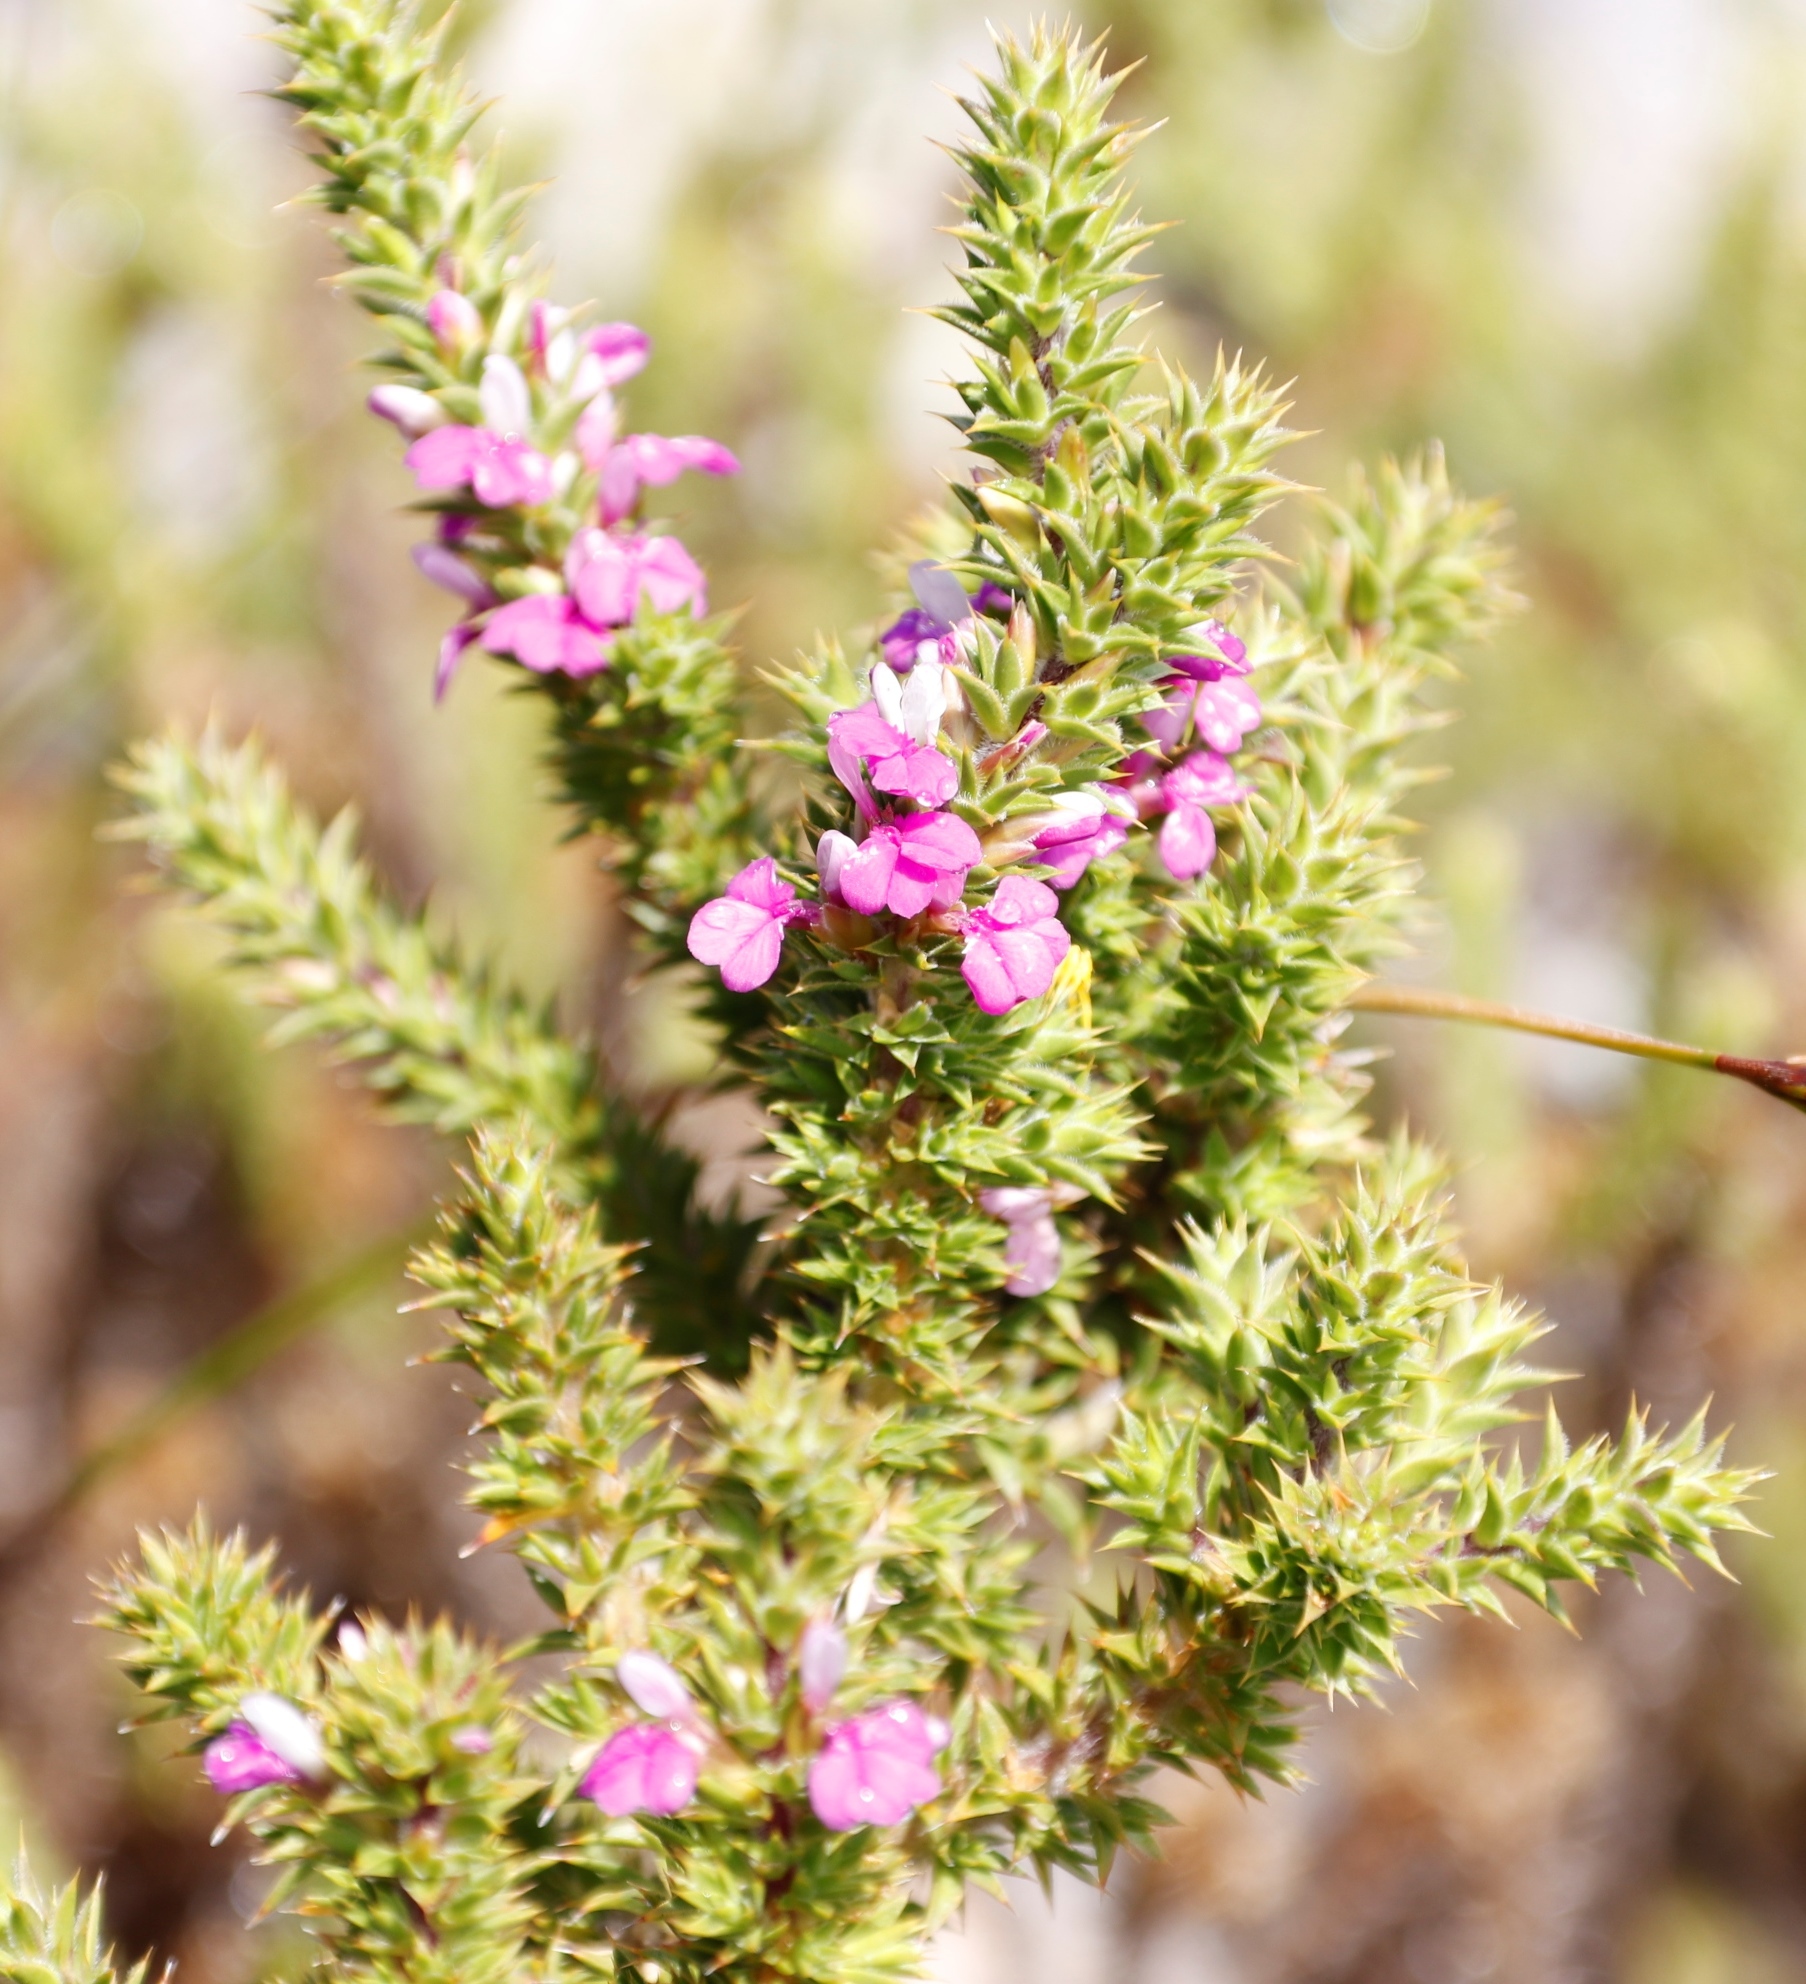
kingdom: Plantae
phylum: Tracheophyta
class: Magnoliopsida
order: Fabales
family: Polygalaceae
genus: Muraltia
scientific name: Muraltia heisteria
